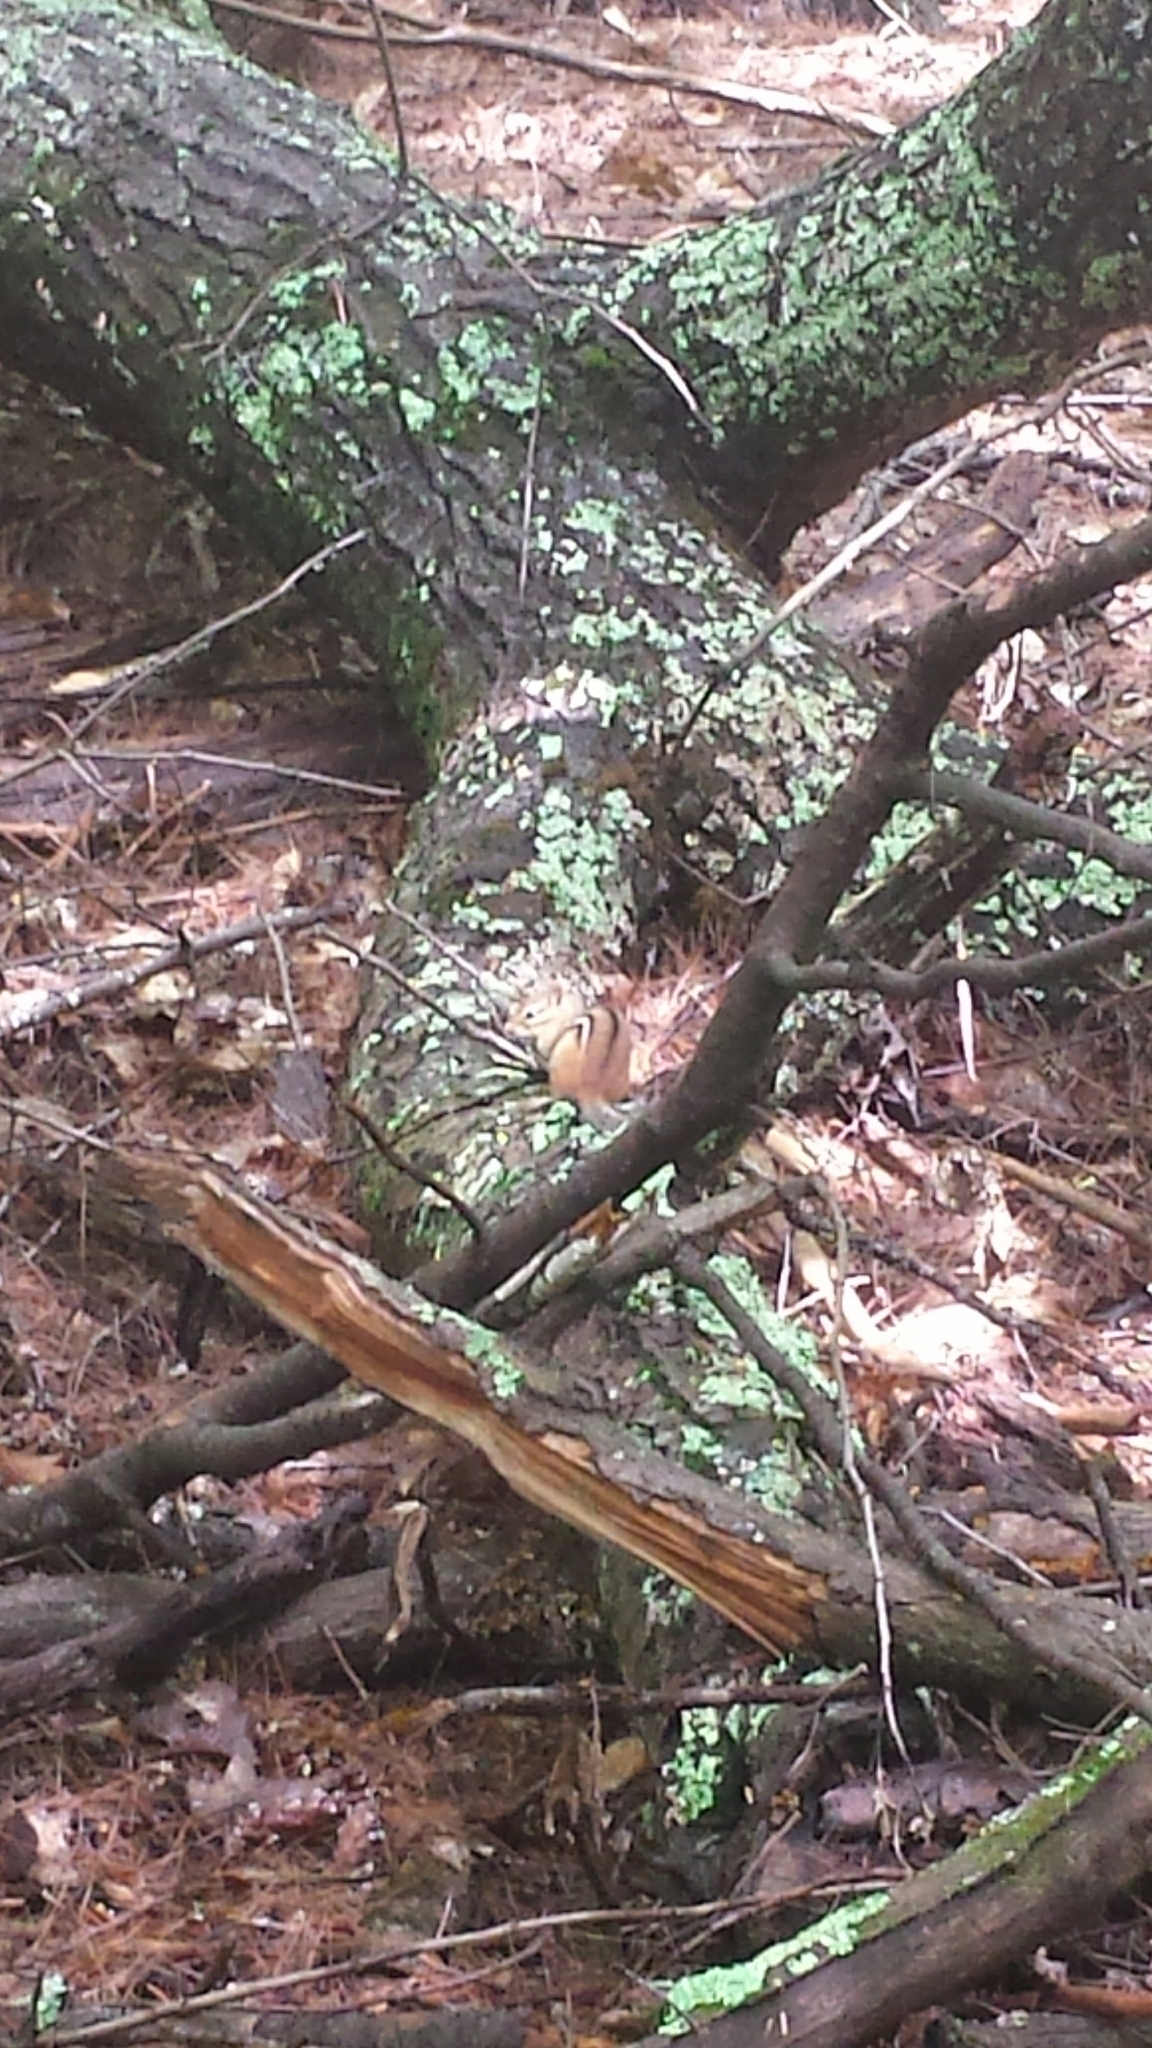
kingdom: Animalia
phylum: Chordata
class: Mammalia
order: Rodentia
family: Sciuridae
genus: Tamias
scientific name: Tamias striatus
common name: Eastern chipmunk
